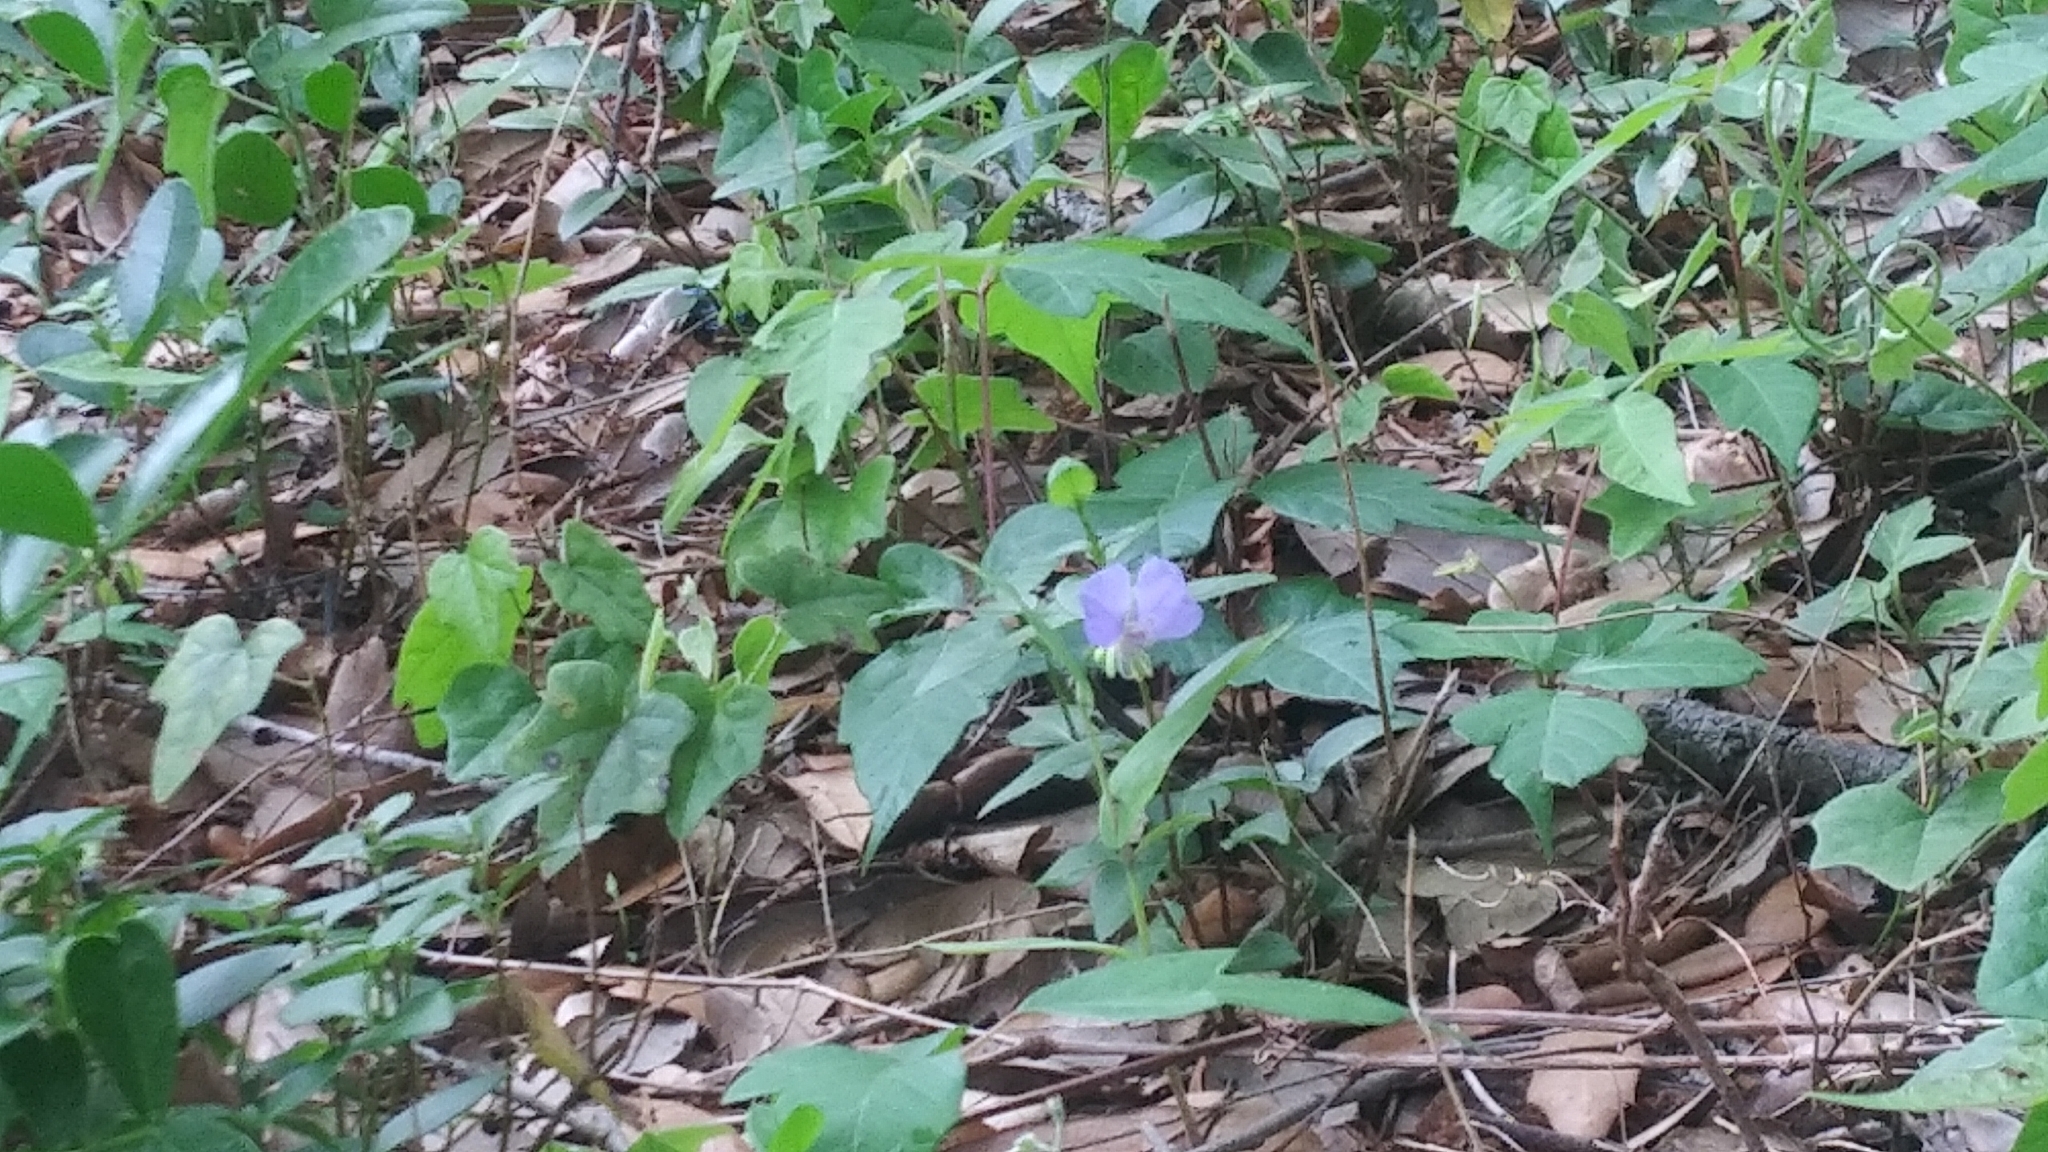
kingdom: Plantae
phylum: Tracheophyta
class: Liliopsida
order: Commelinales
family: Commelinaceae
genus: Tinantia
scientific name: Tinantia anomala
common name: False dayflower
